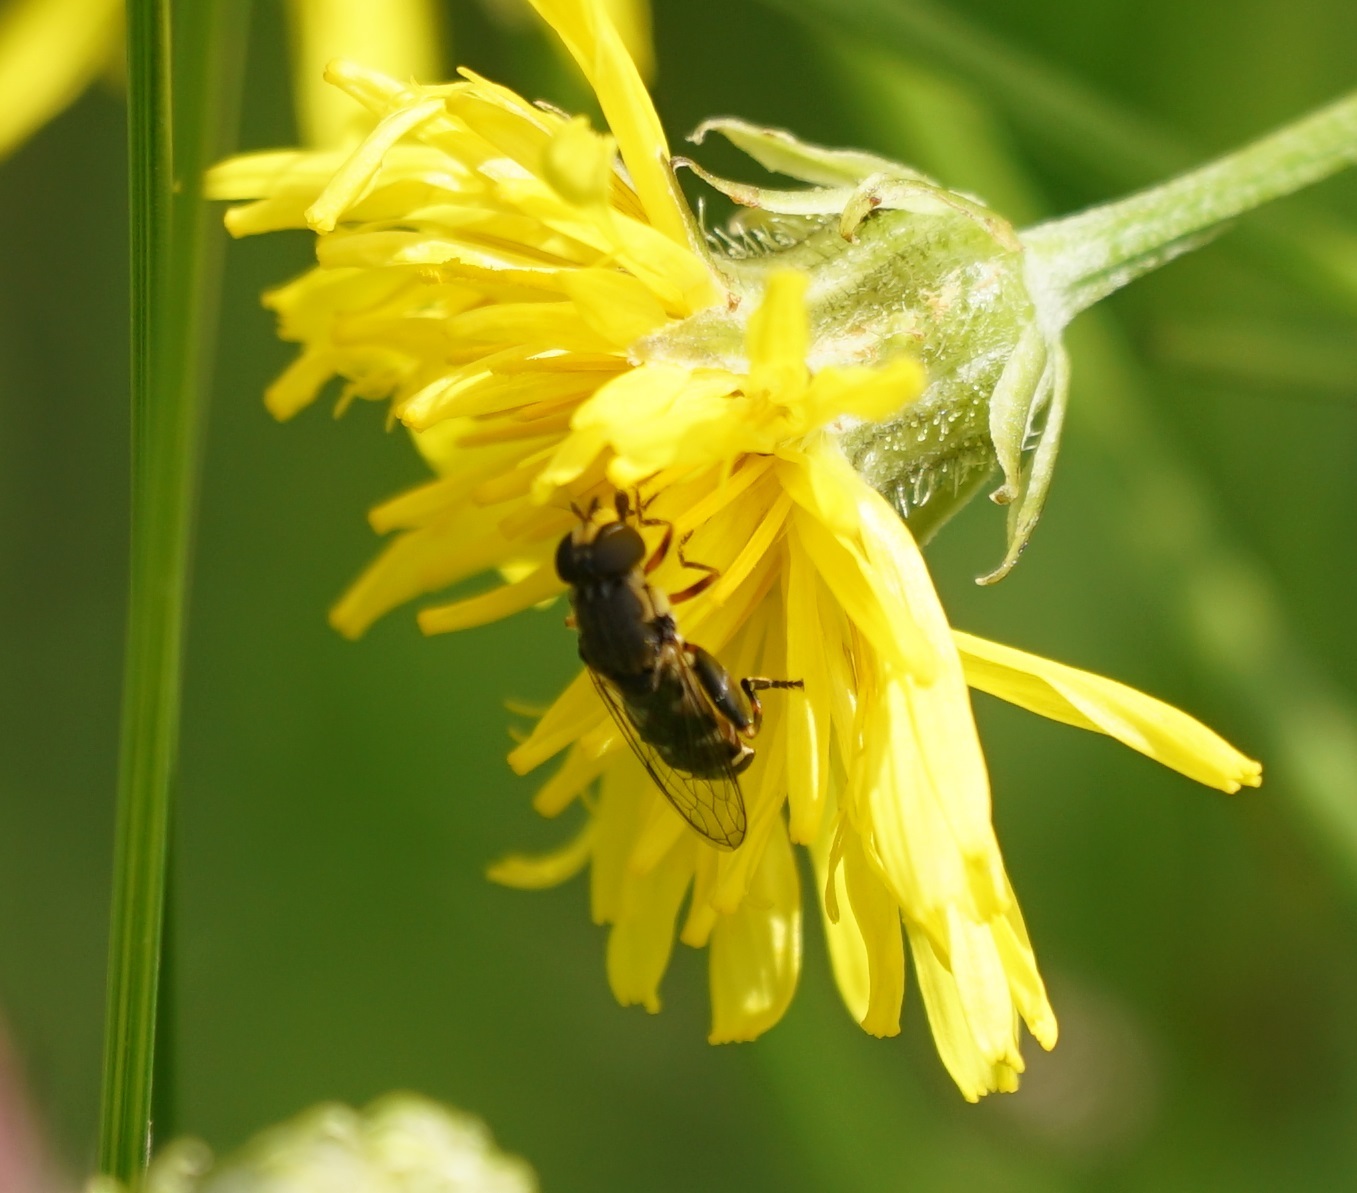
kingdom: Animalia
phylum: Arthropoda
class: Insecta
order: Diptera
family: Syrphidae
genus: Syritta
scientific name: Syritta pipiens
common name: Hover fly
